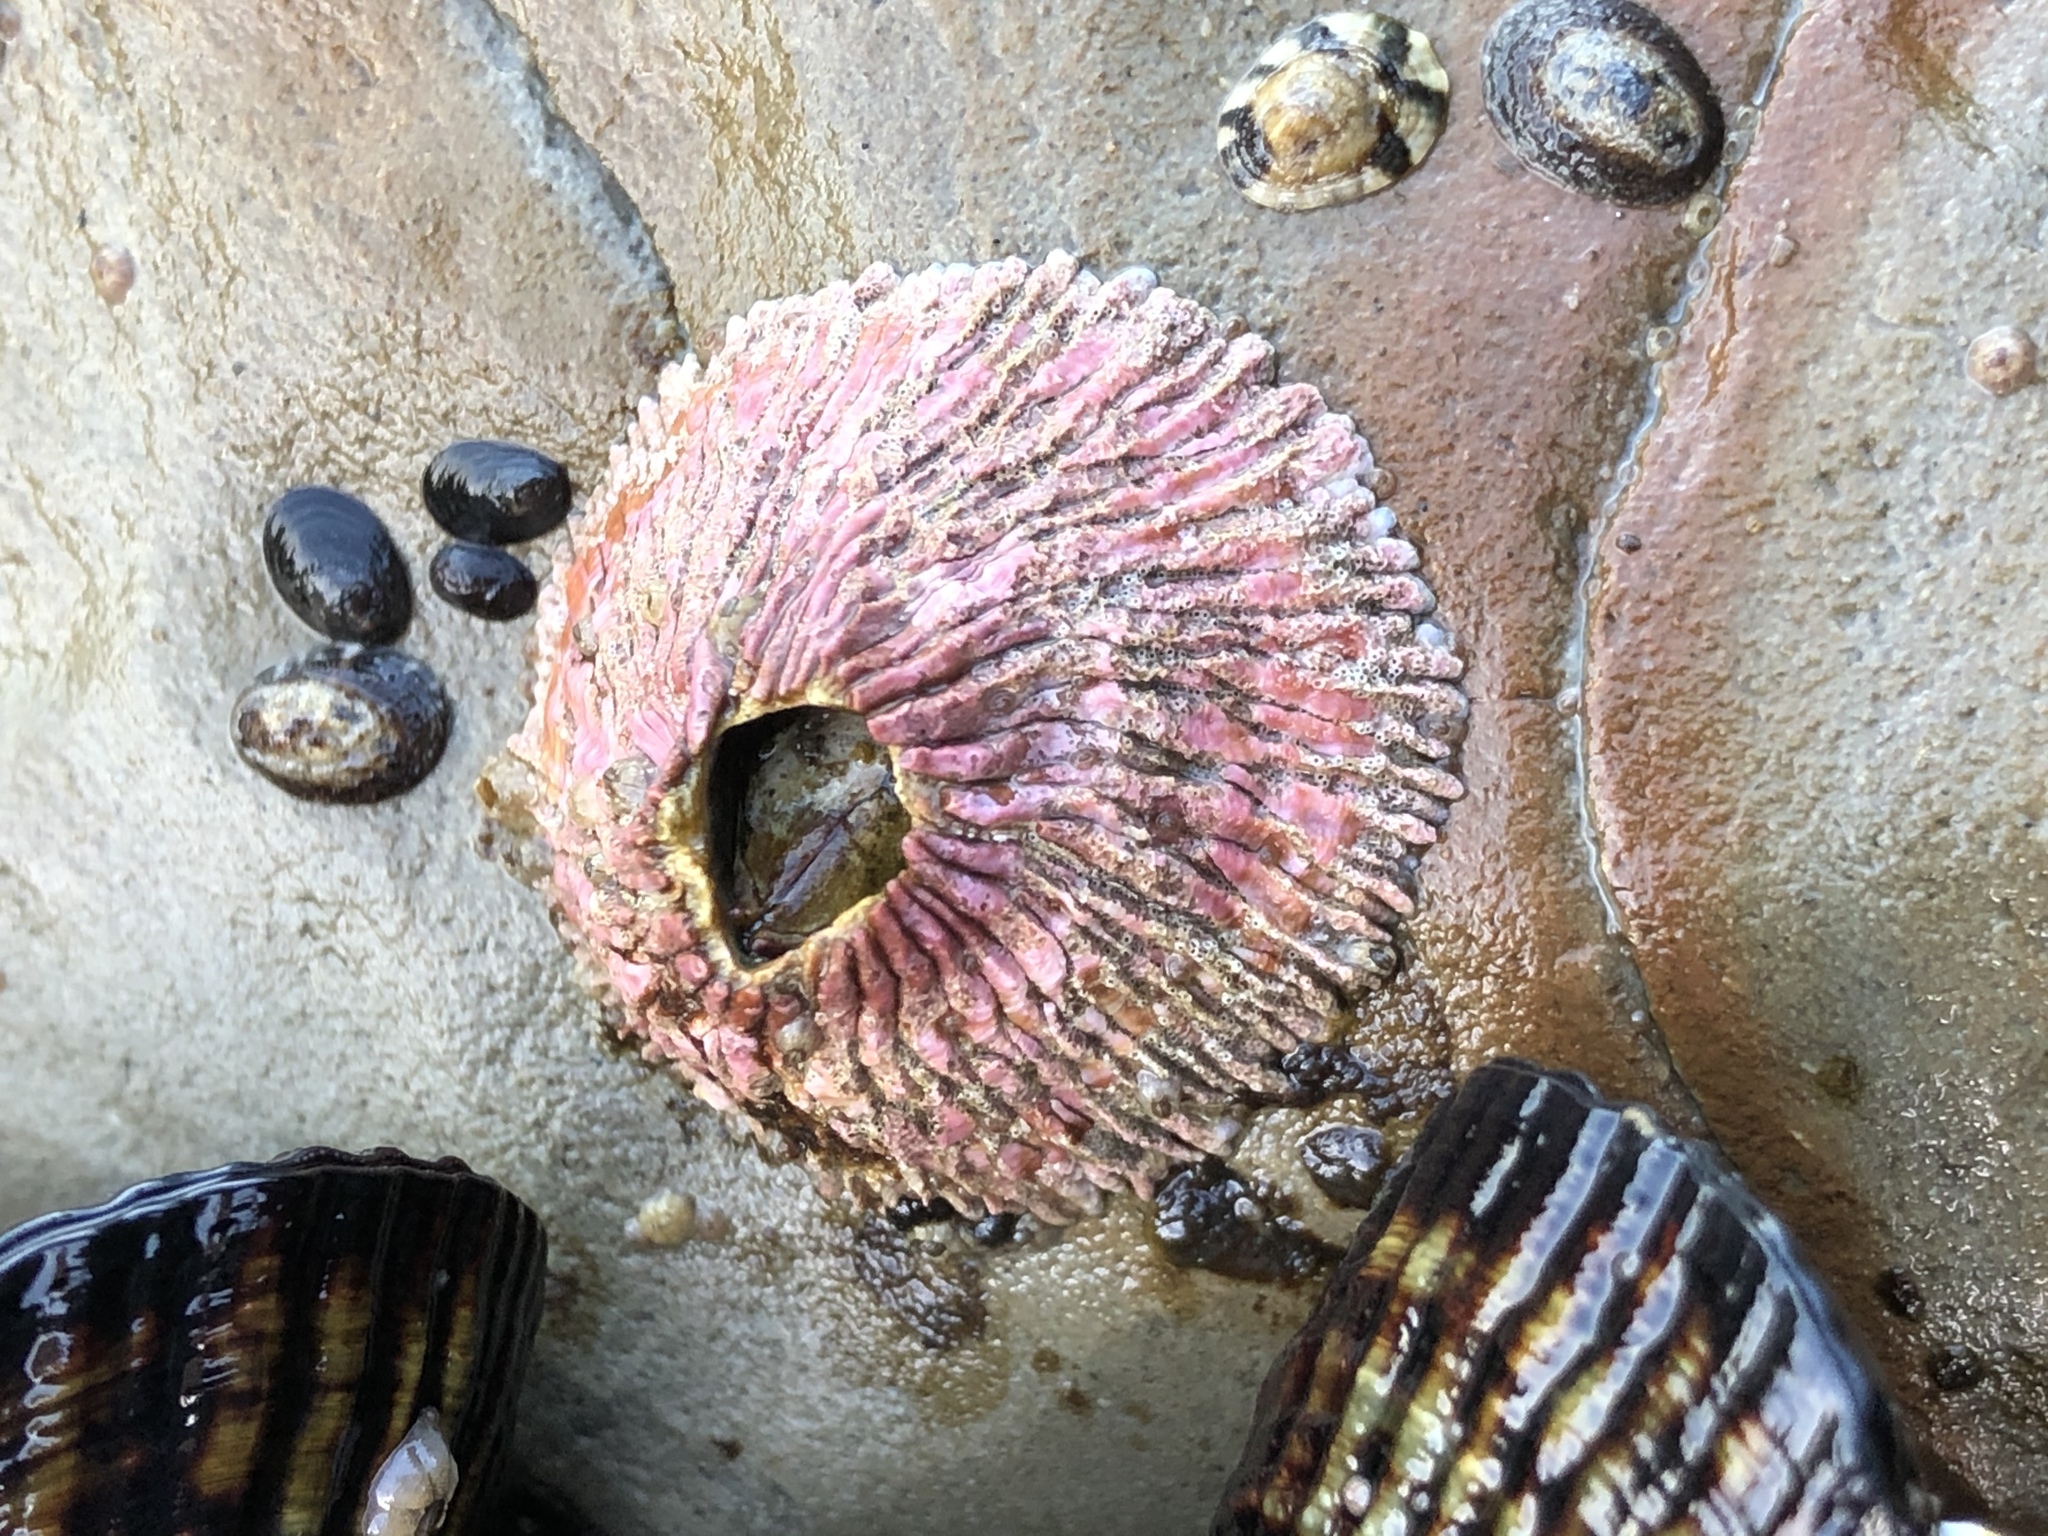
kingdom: Animalia
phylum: Arthropoda
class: Maxillopoda
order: Sessilia
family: Tetraclitidae
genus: Tetraclita
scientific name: Tetraclita rubescens
